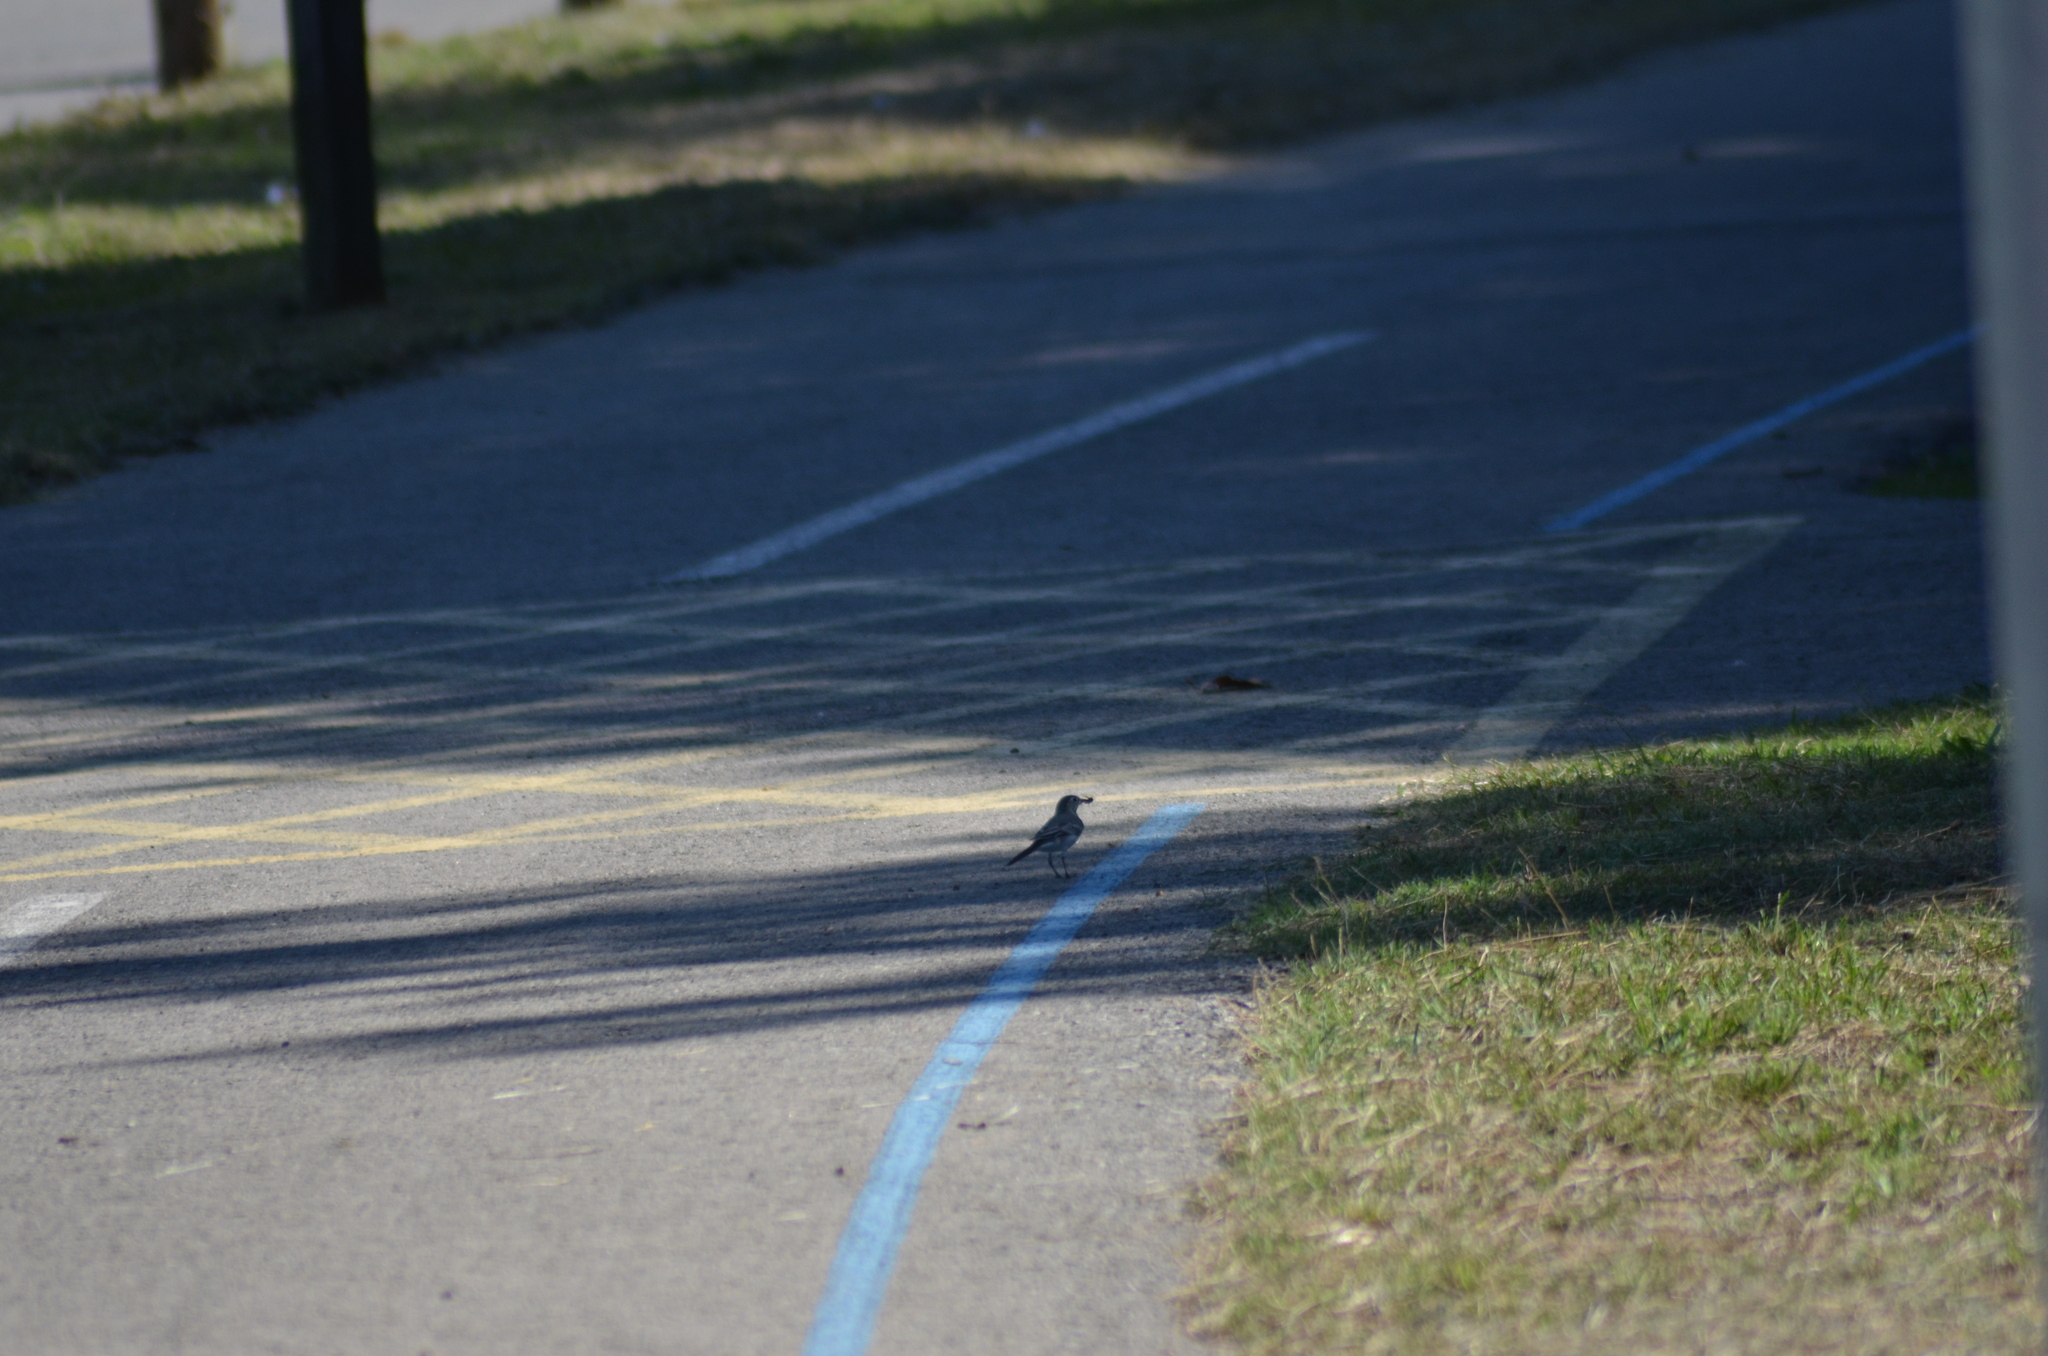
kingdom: Animalia
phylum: Chordata
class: Aves
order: Passeriformes
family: Motacillidae
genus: Motacilla
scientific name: Motacilla alba
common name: White wagtail
